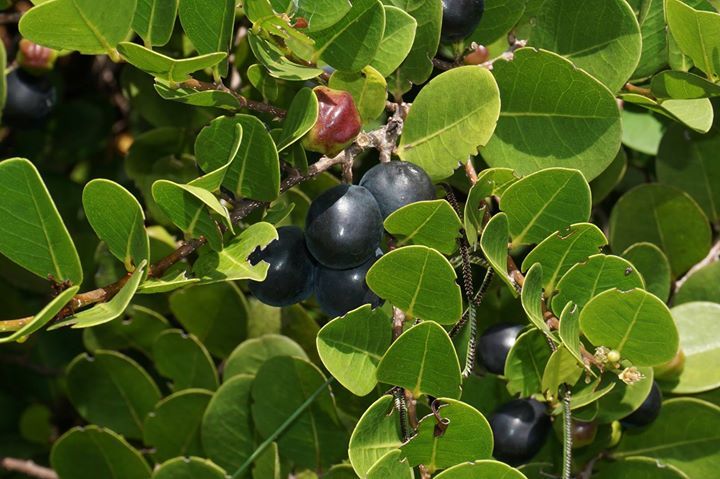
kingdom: Plantae
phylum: Tracheophyta
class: Magnoliopsida
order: Malpighiales
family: Chrysobalanaceae
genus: Chrysobalanus
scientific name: Chrysobalanus icaco
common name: Coco plum
